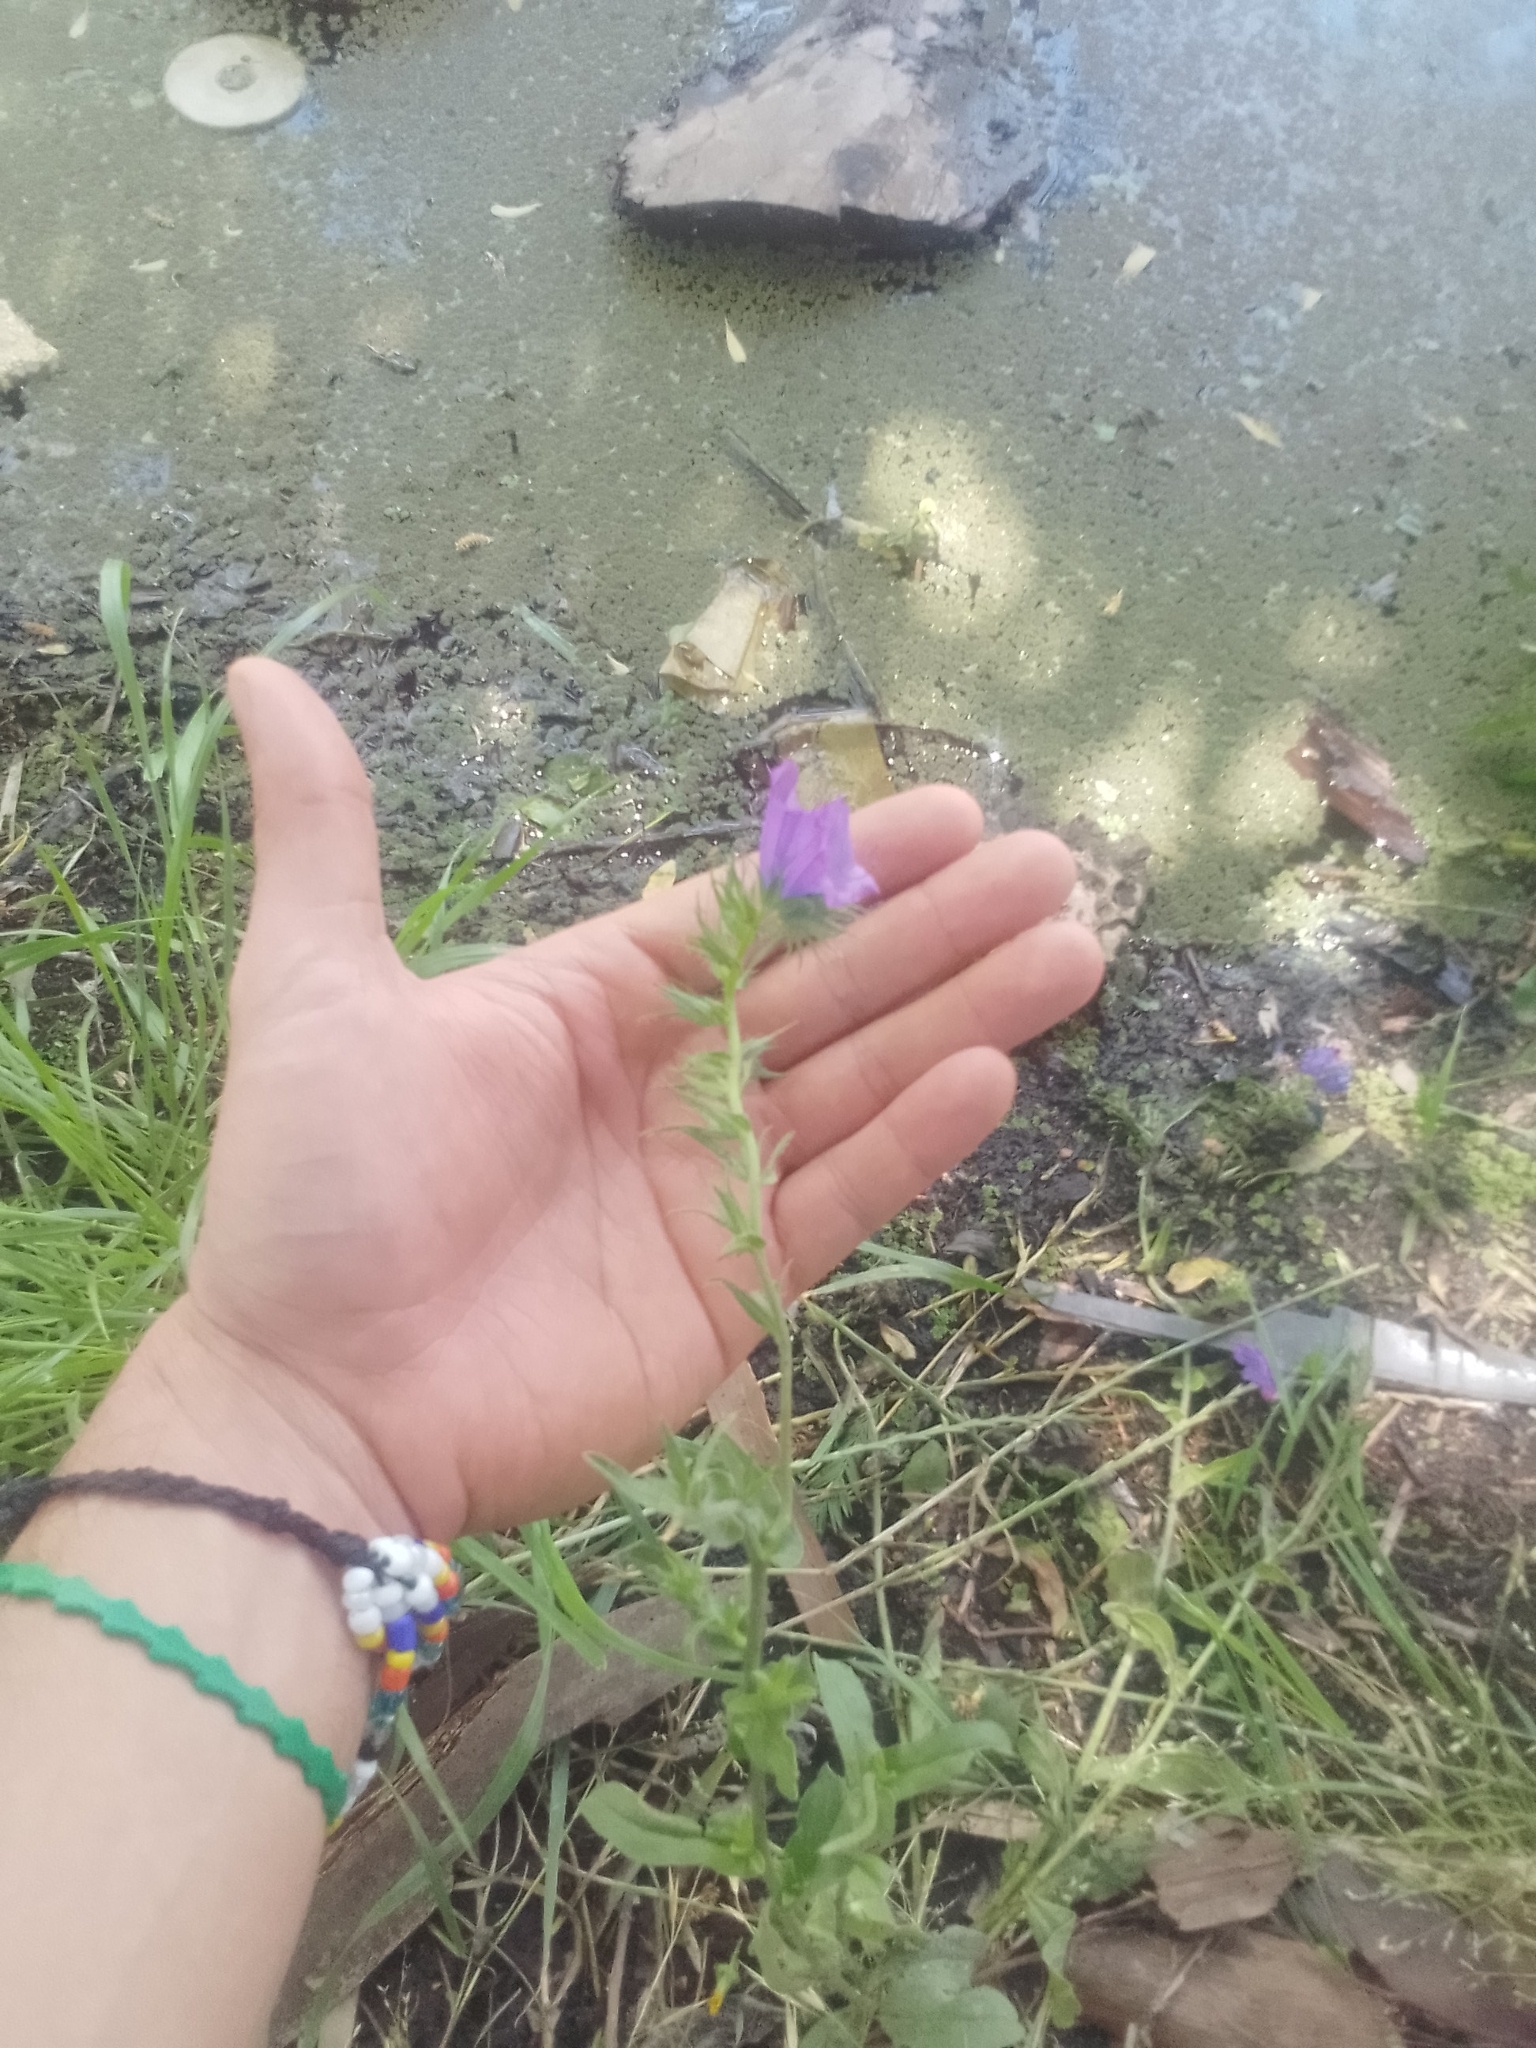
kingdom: Plantae
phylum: Tracheophyta
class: Magnoliopsida
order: Boraginales
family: Boraginaceae
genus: Echium
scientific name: Echium plantagineum
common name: Purple viper's-bugloss
